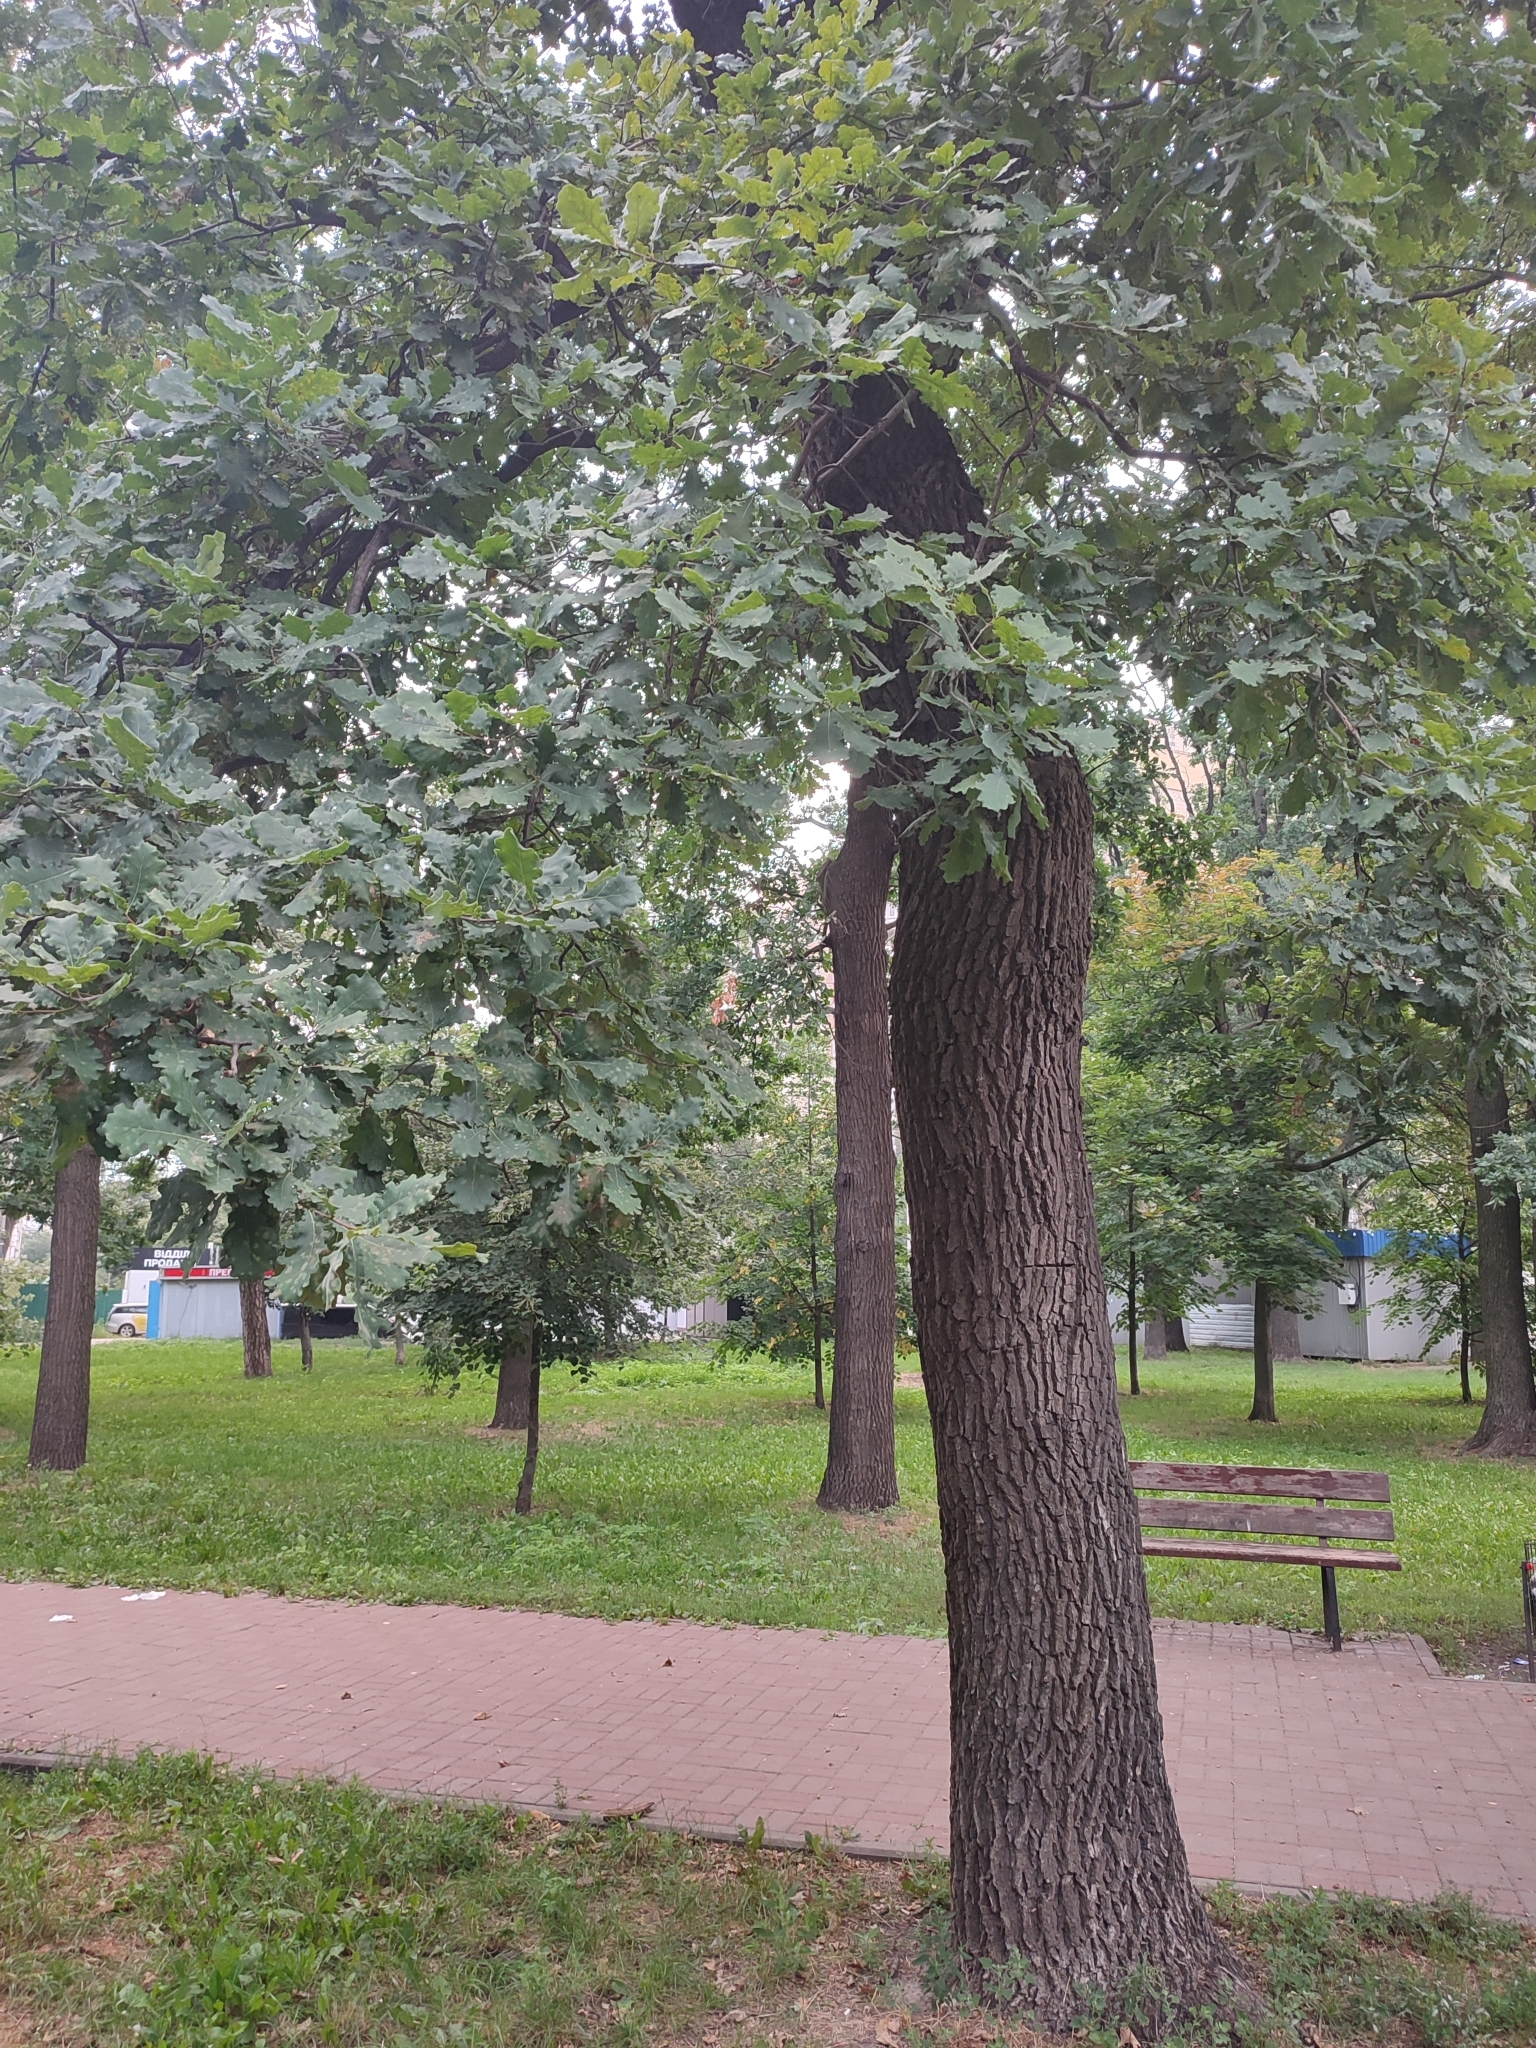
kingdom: Plantae
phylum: Tracheophyta
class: Magnoliopsida
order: Fagales
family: Fagaceae
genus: Quercus
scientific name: Quercus robur
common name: Pedunculate oak
